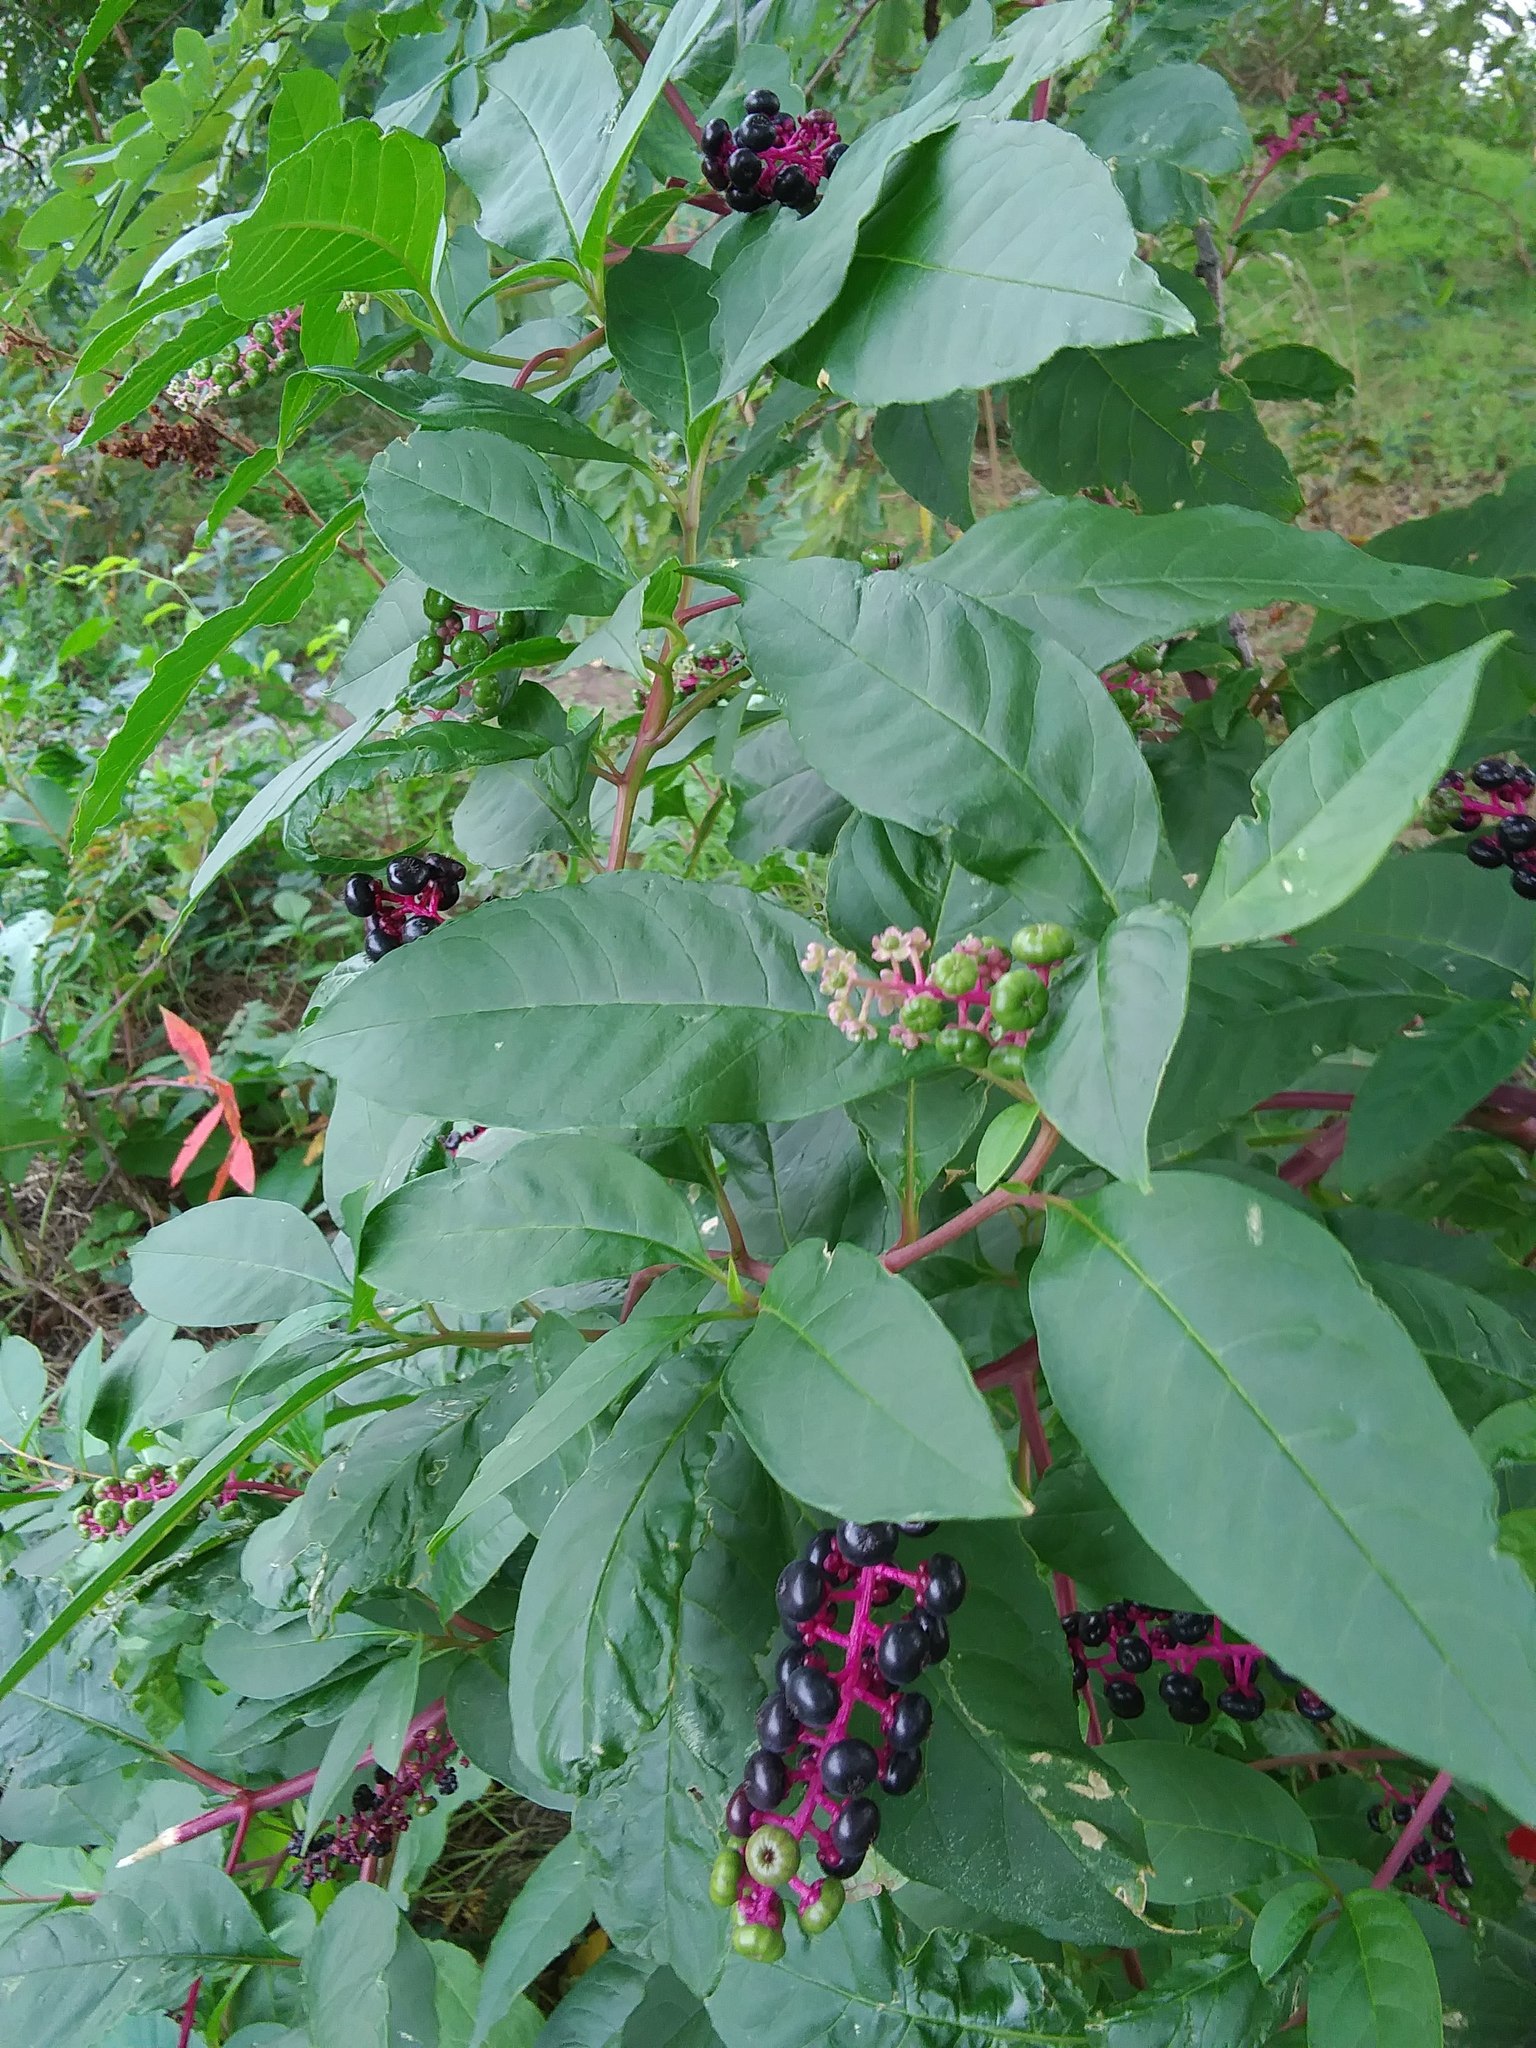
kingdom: Plantae
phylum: Tracheophyta
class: Magnoliopsida
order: Caryophyllales
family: Phytolaccaceae
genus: Phytolacca
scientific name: Phytolacca americana
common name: American pokeweed
